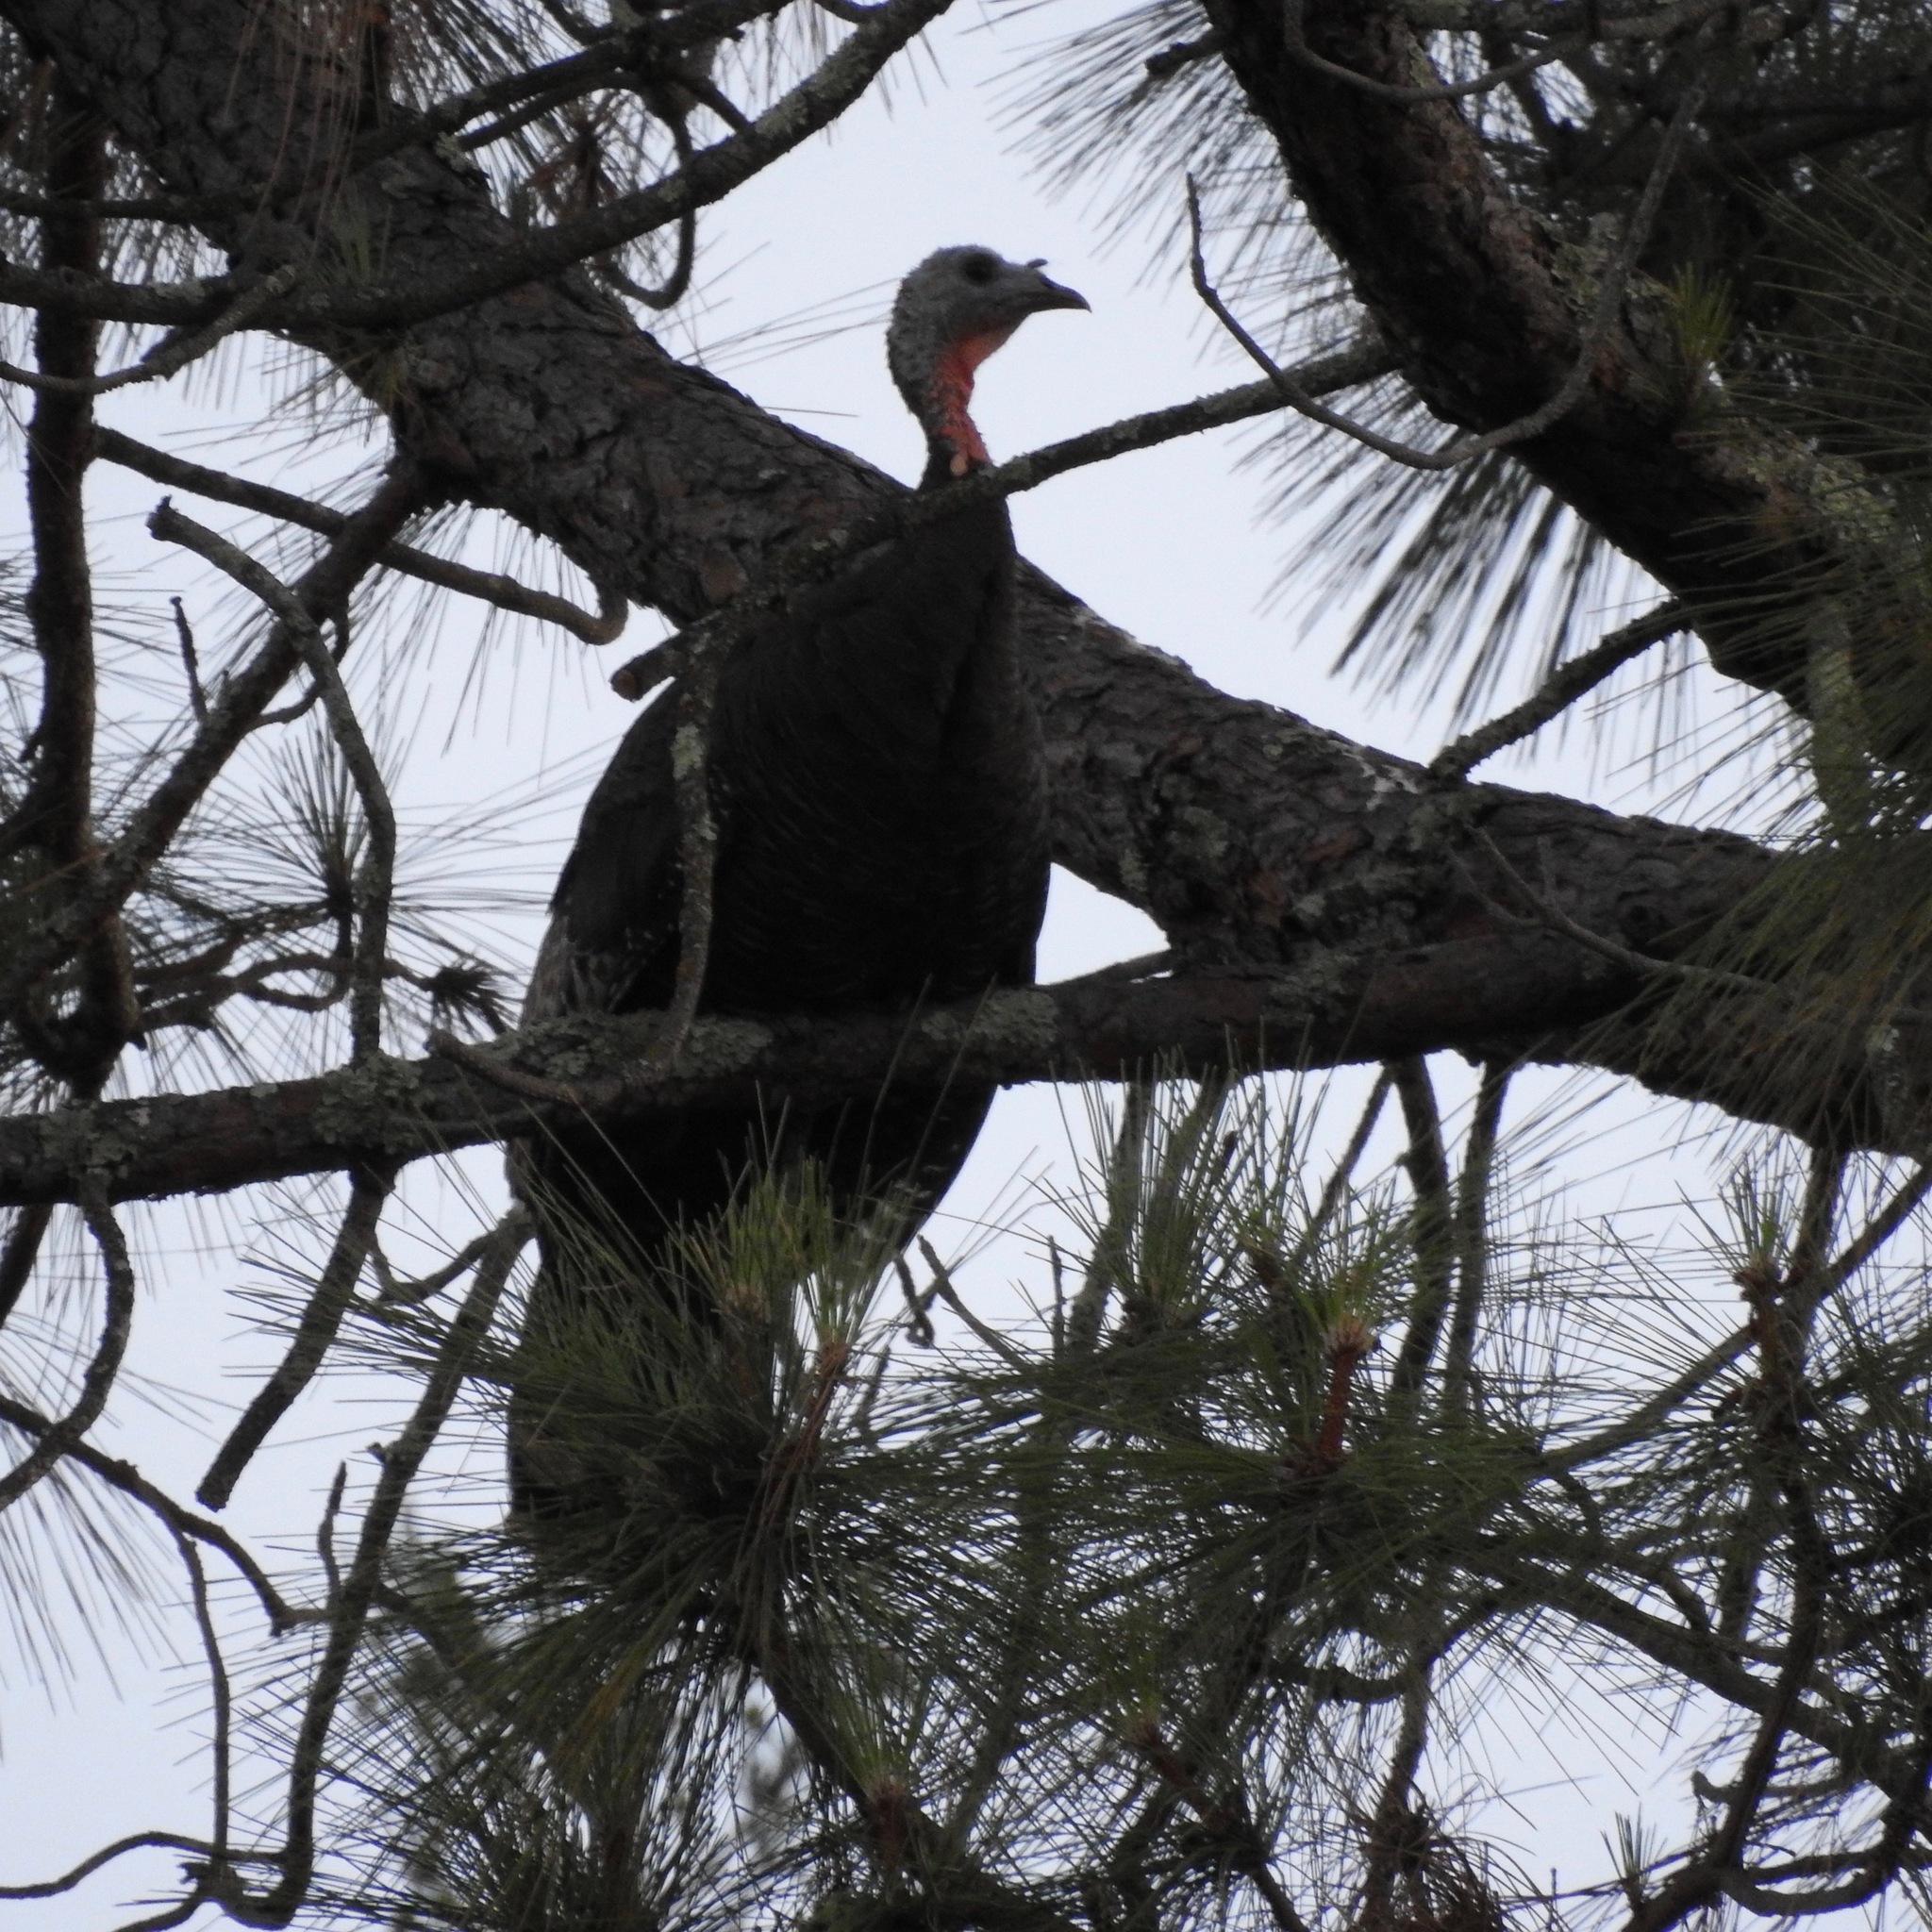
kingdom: Animalia
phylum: Chordata
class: Aves
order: Galliformes
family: Phasianidae
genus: Meleagris
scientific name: Meleagris gallopavo
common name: Wild turkey
